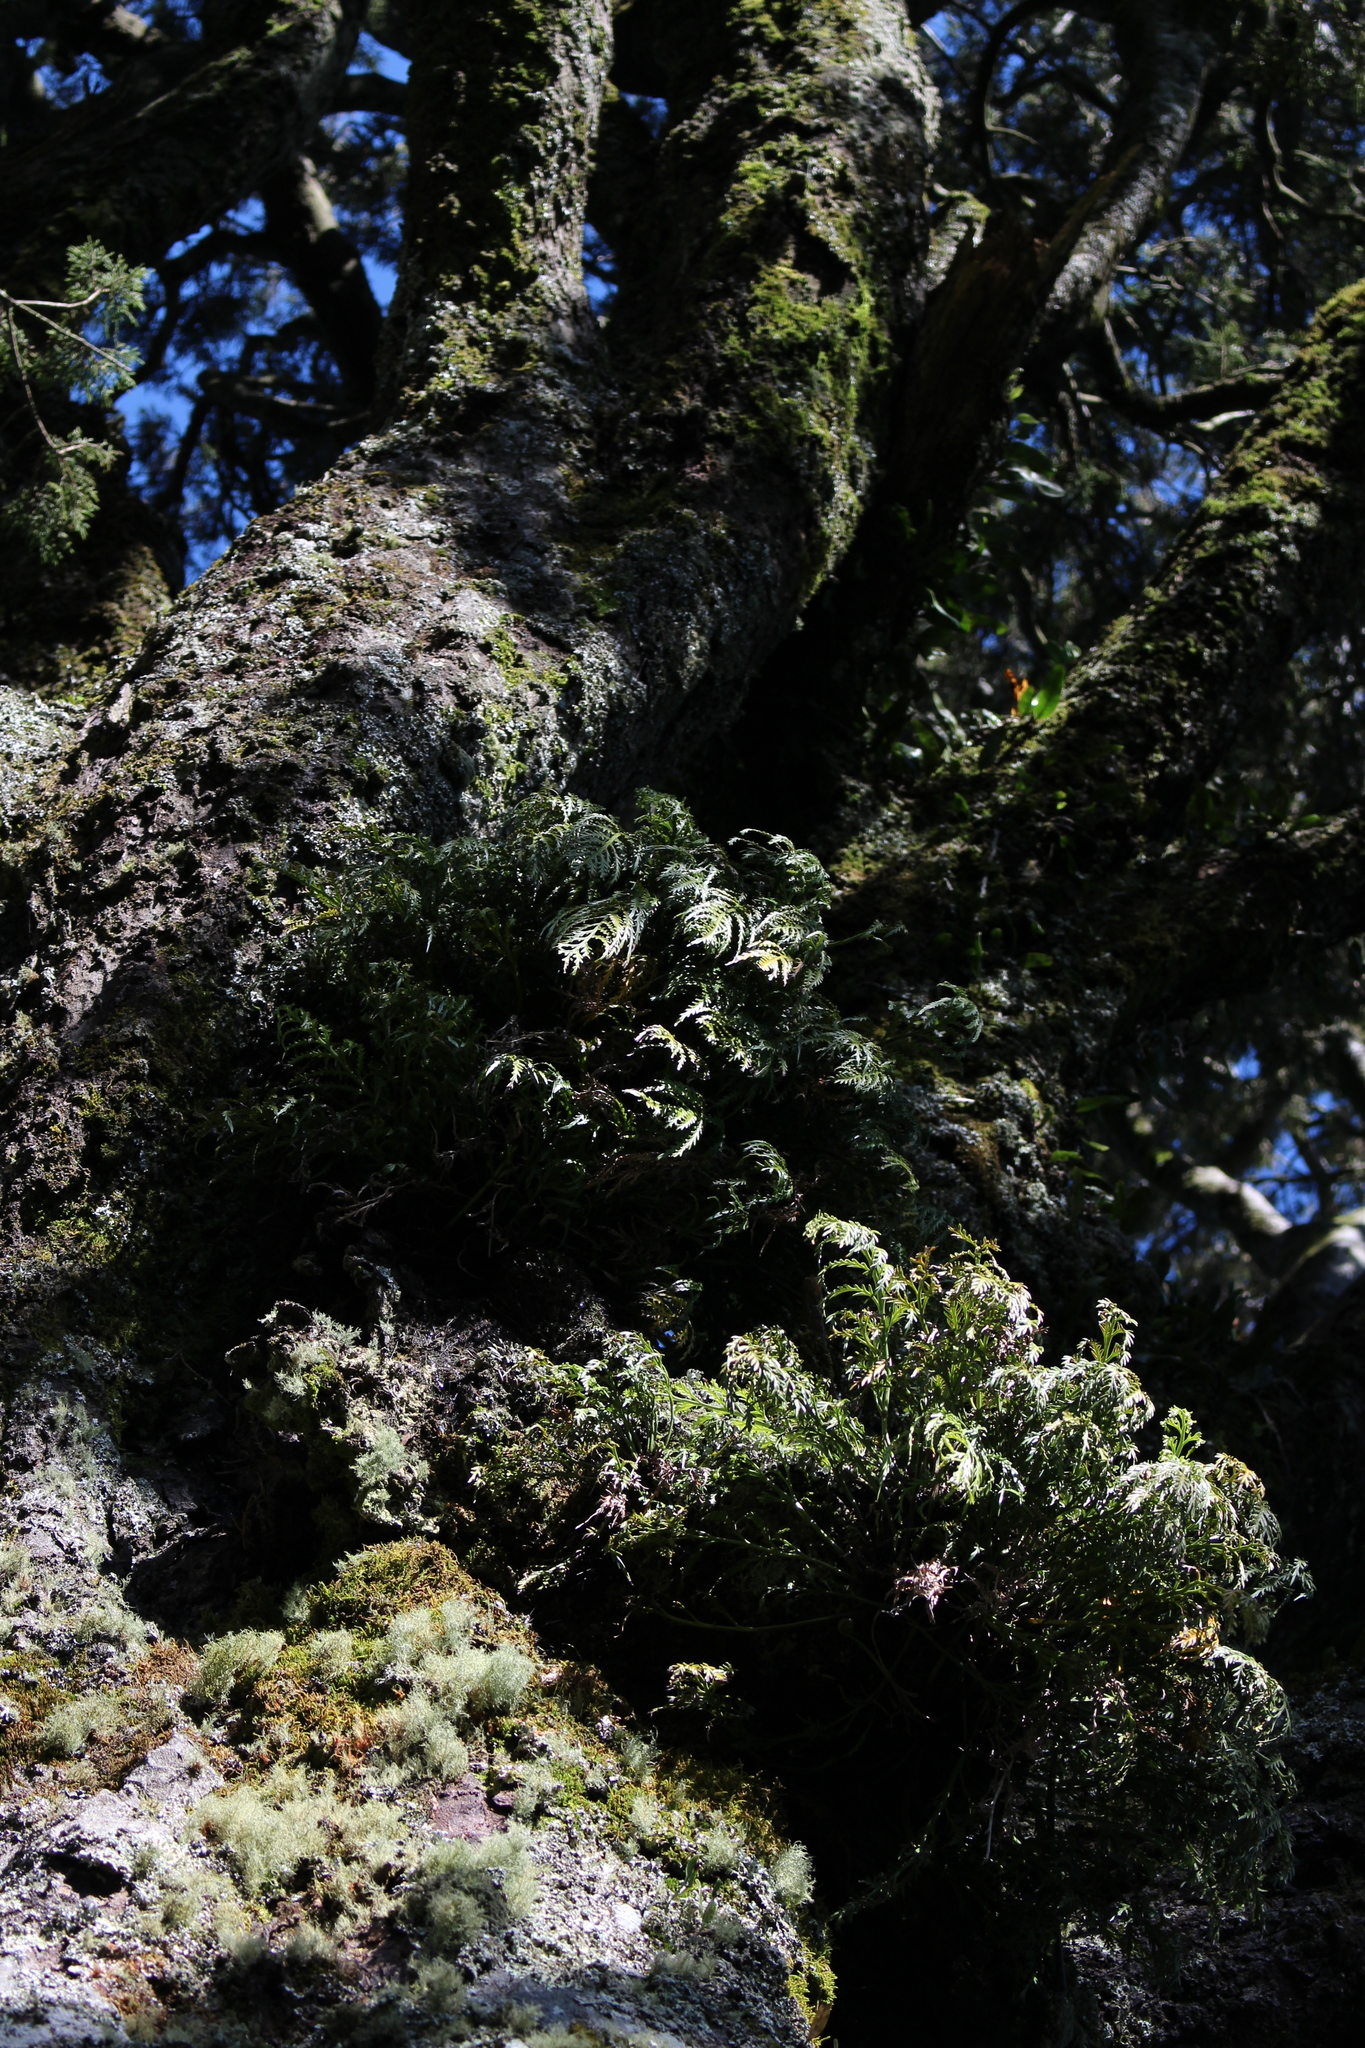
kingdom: Plantae
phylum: Tracheophyta
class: Polypodiopsida
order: Polypodiales
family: Aspleniaceae
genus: Asplenium
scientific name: Asplenium flaccidum
